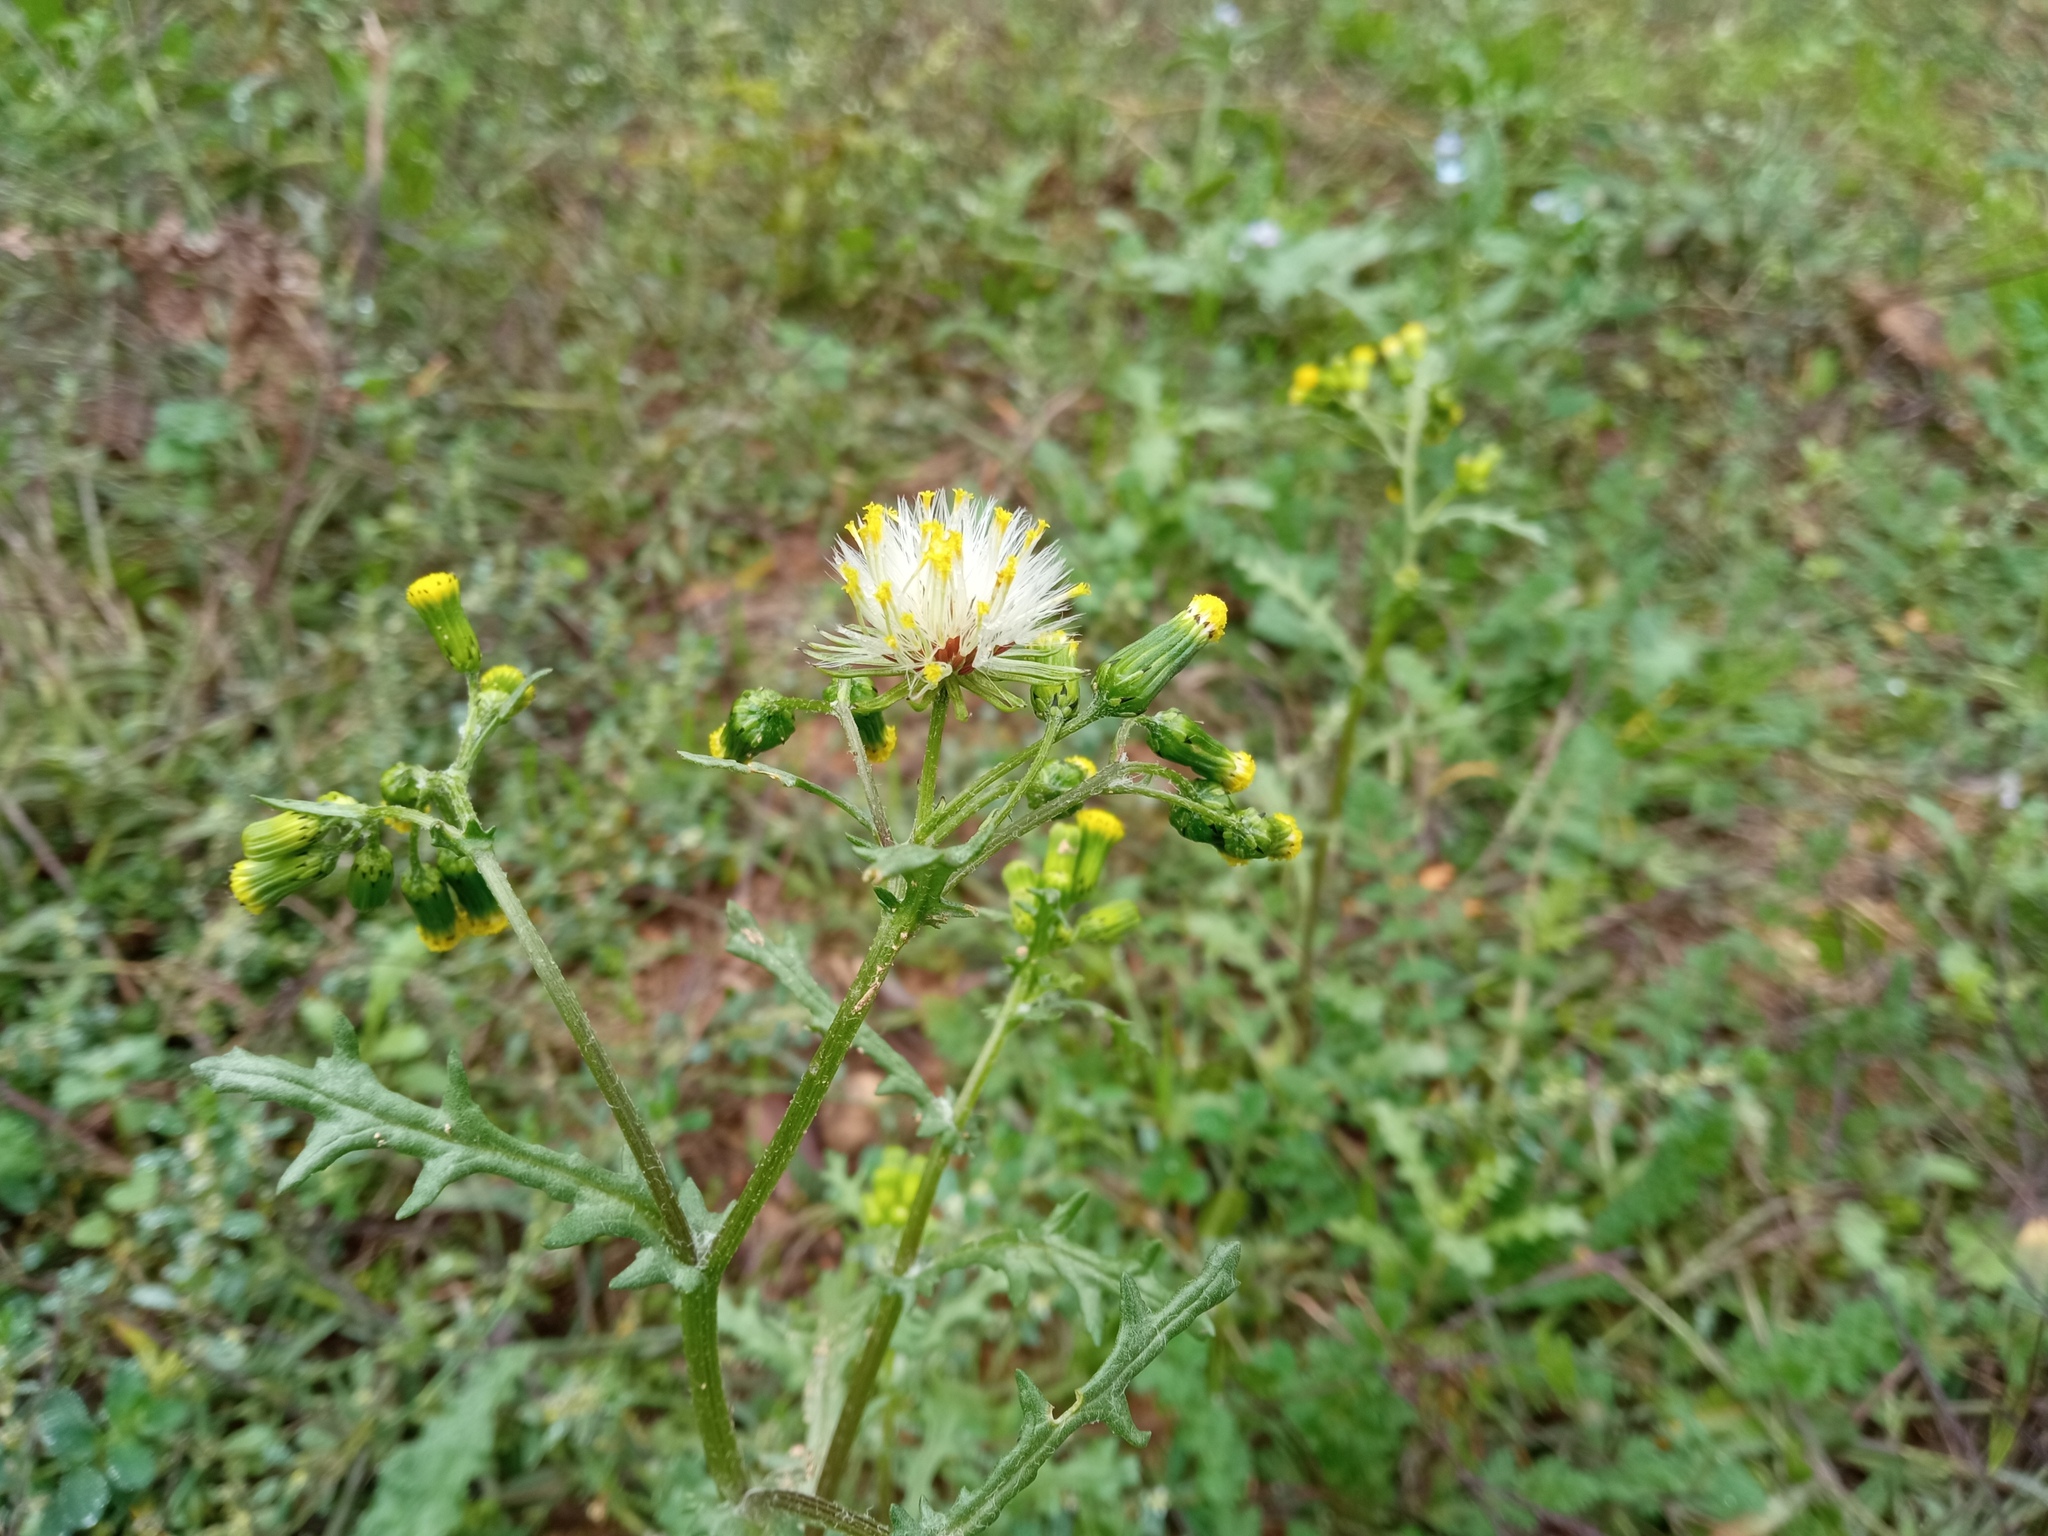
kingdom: Plantae
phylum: Tracheophyta
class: Magnoliopsida
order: Asterales
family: Asteraceae
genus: Senecio
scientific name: Senecio vulgaris
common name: Old-man-in-the-spring
